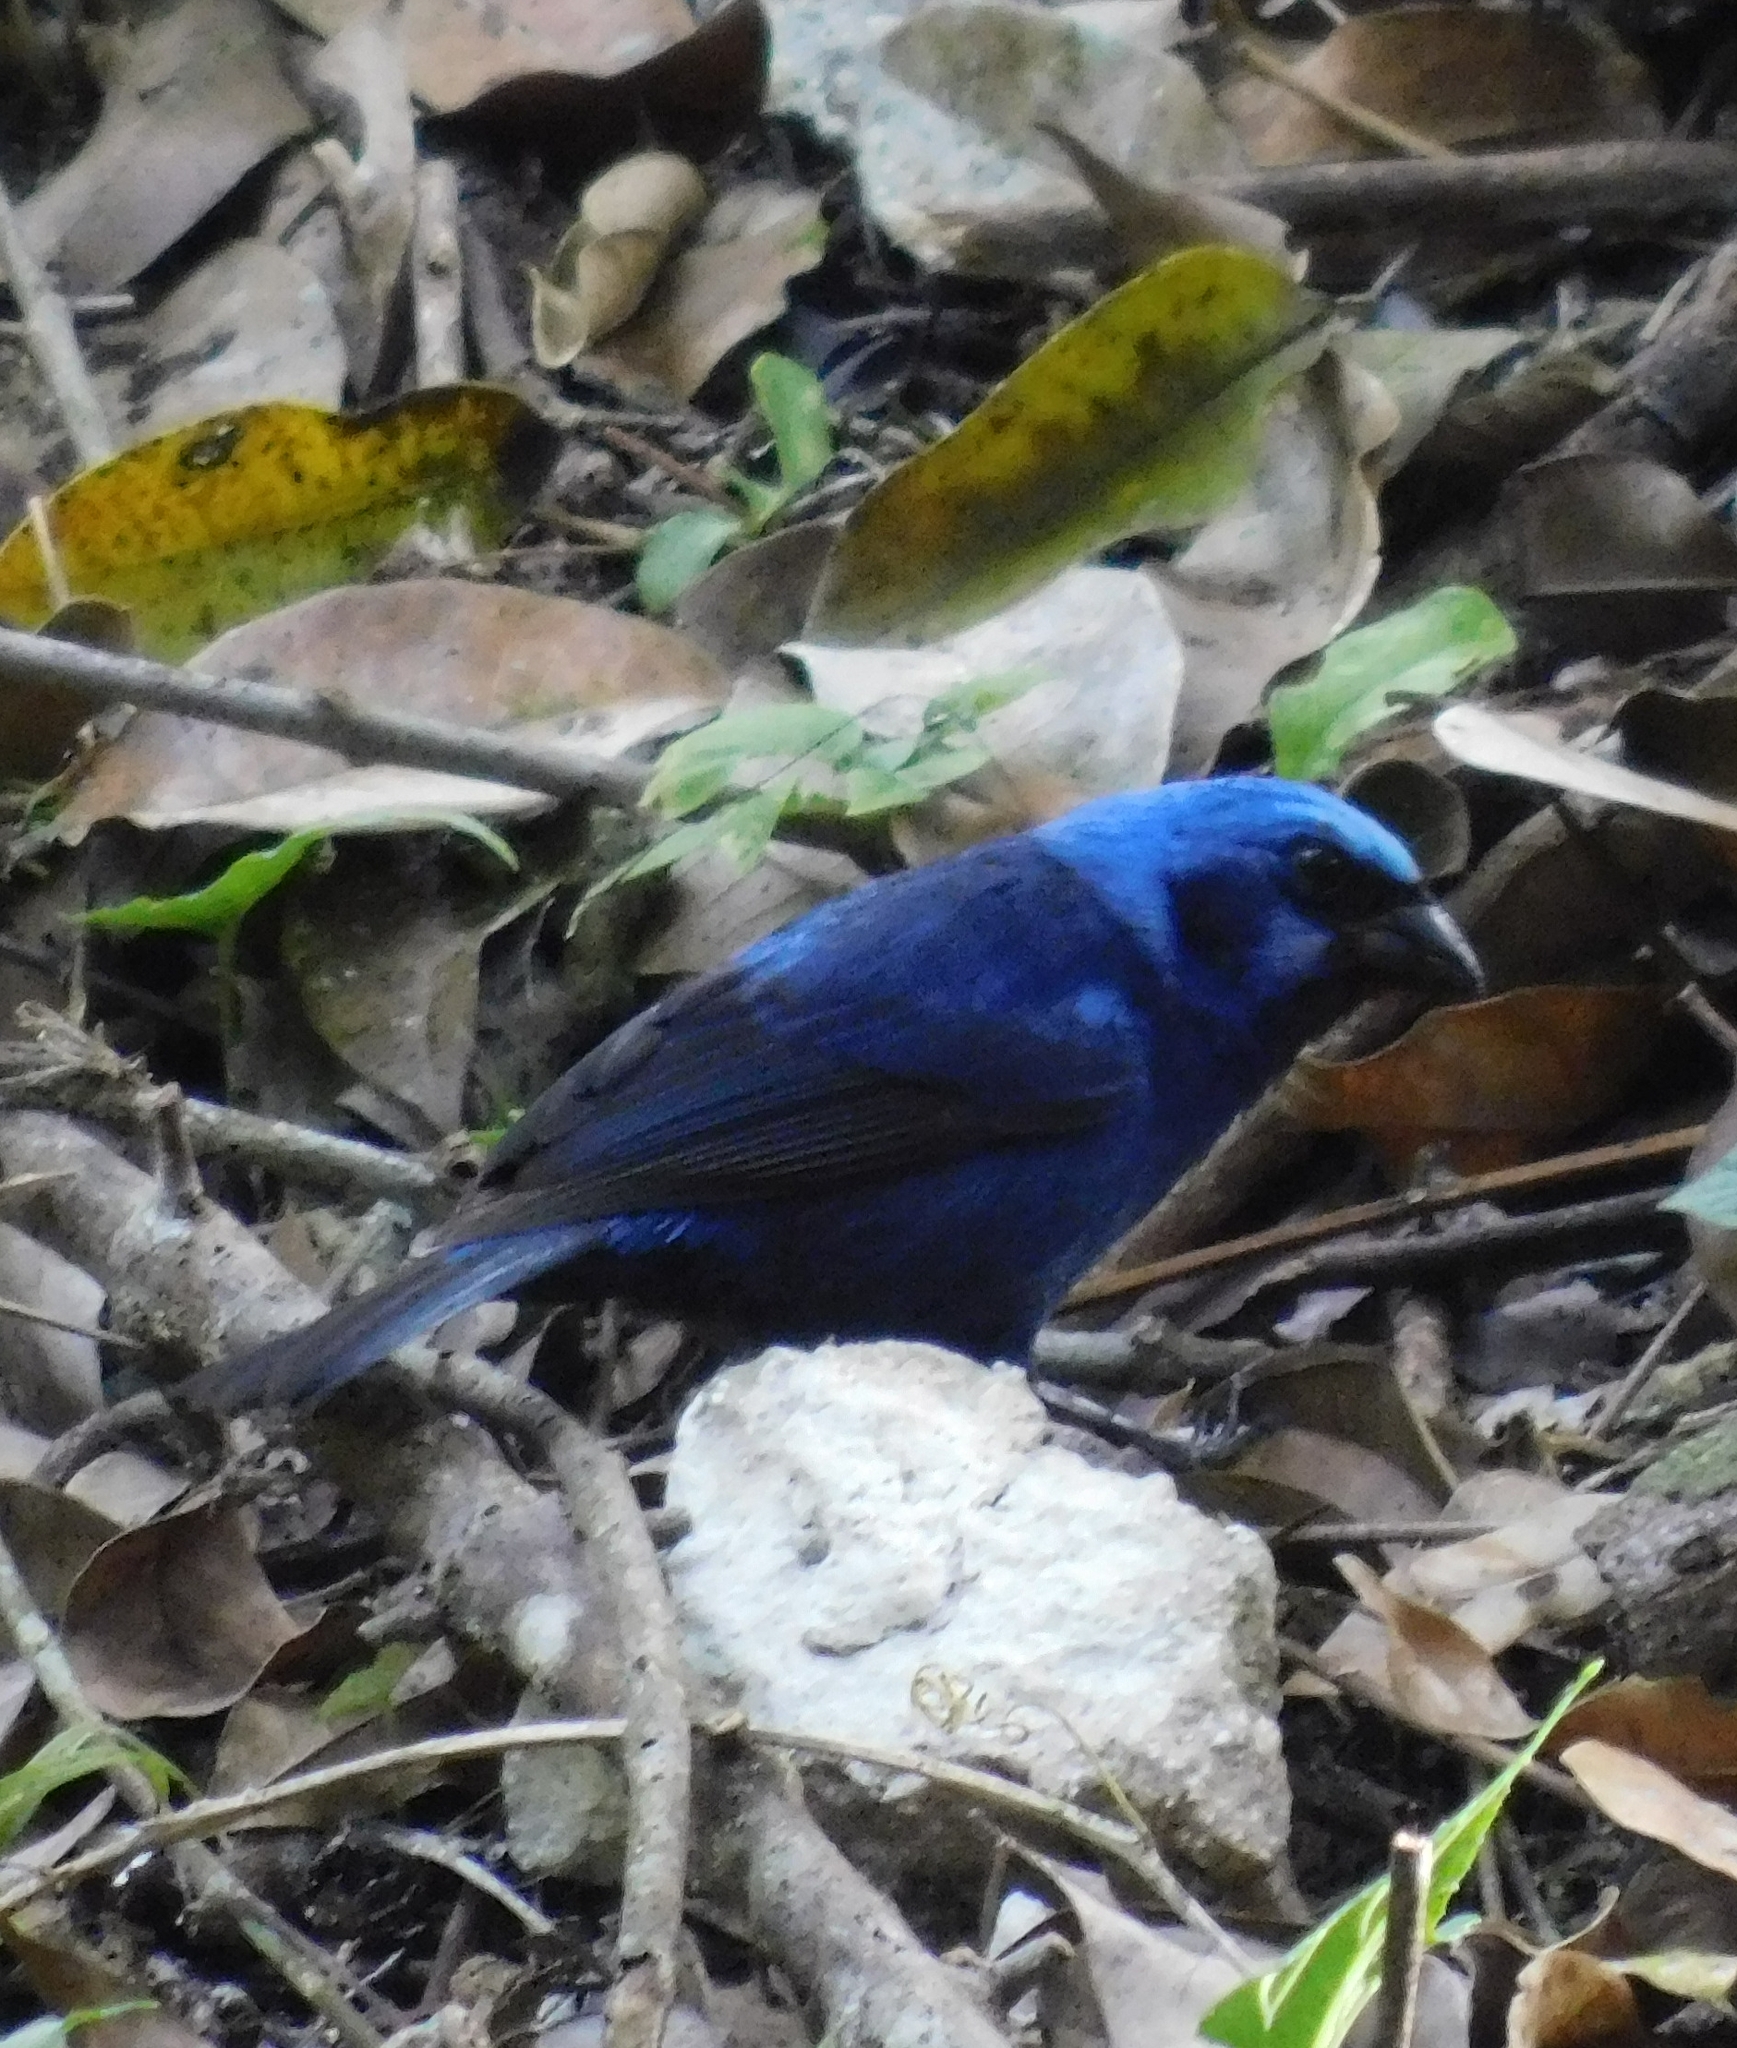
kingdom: Animalia
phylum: Chordata
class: Aves
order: Passeriformes
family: Cardinalidae
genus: Cyanocompsa
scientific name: Cyanocompsa parellina
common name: Blue bunting
